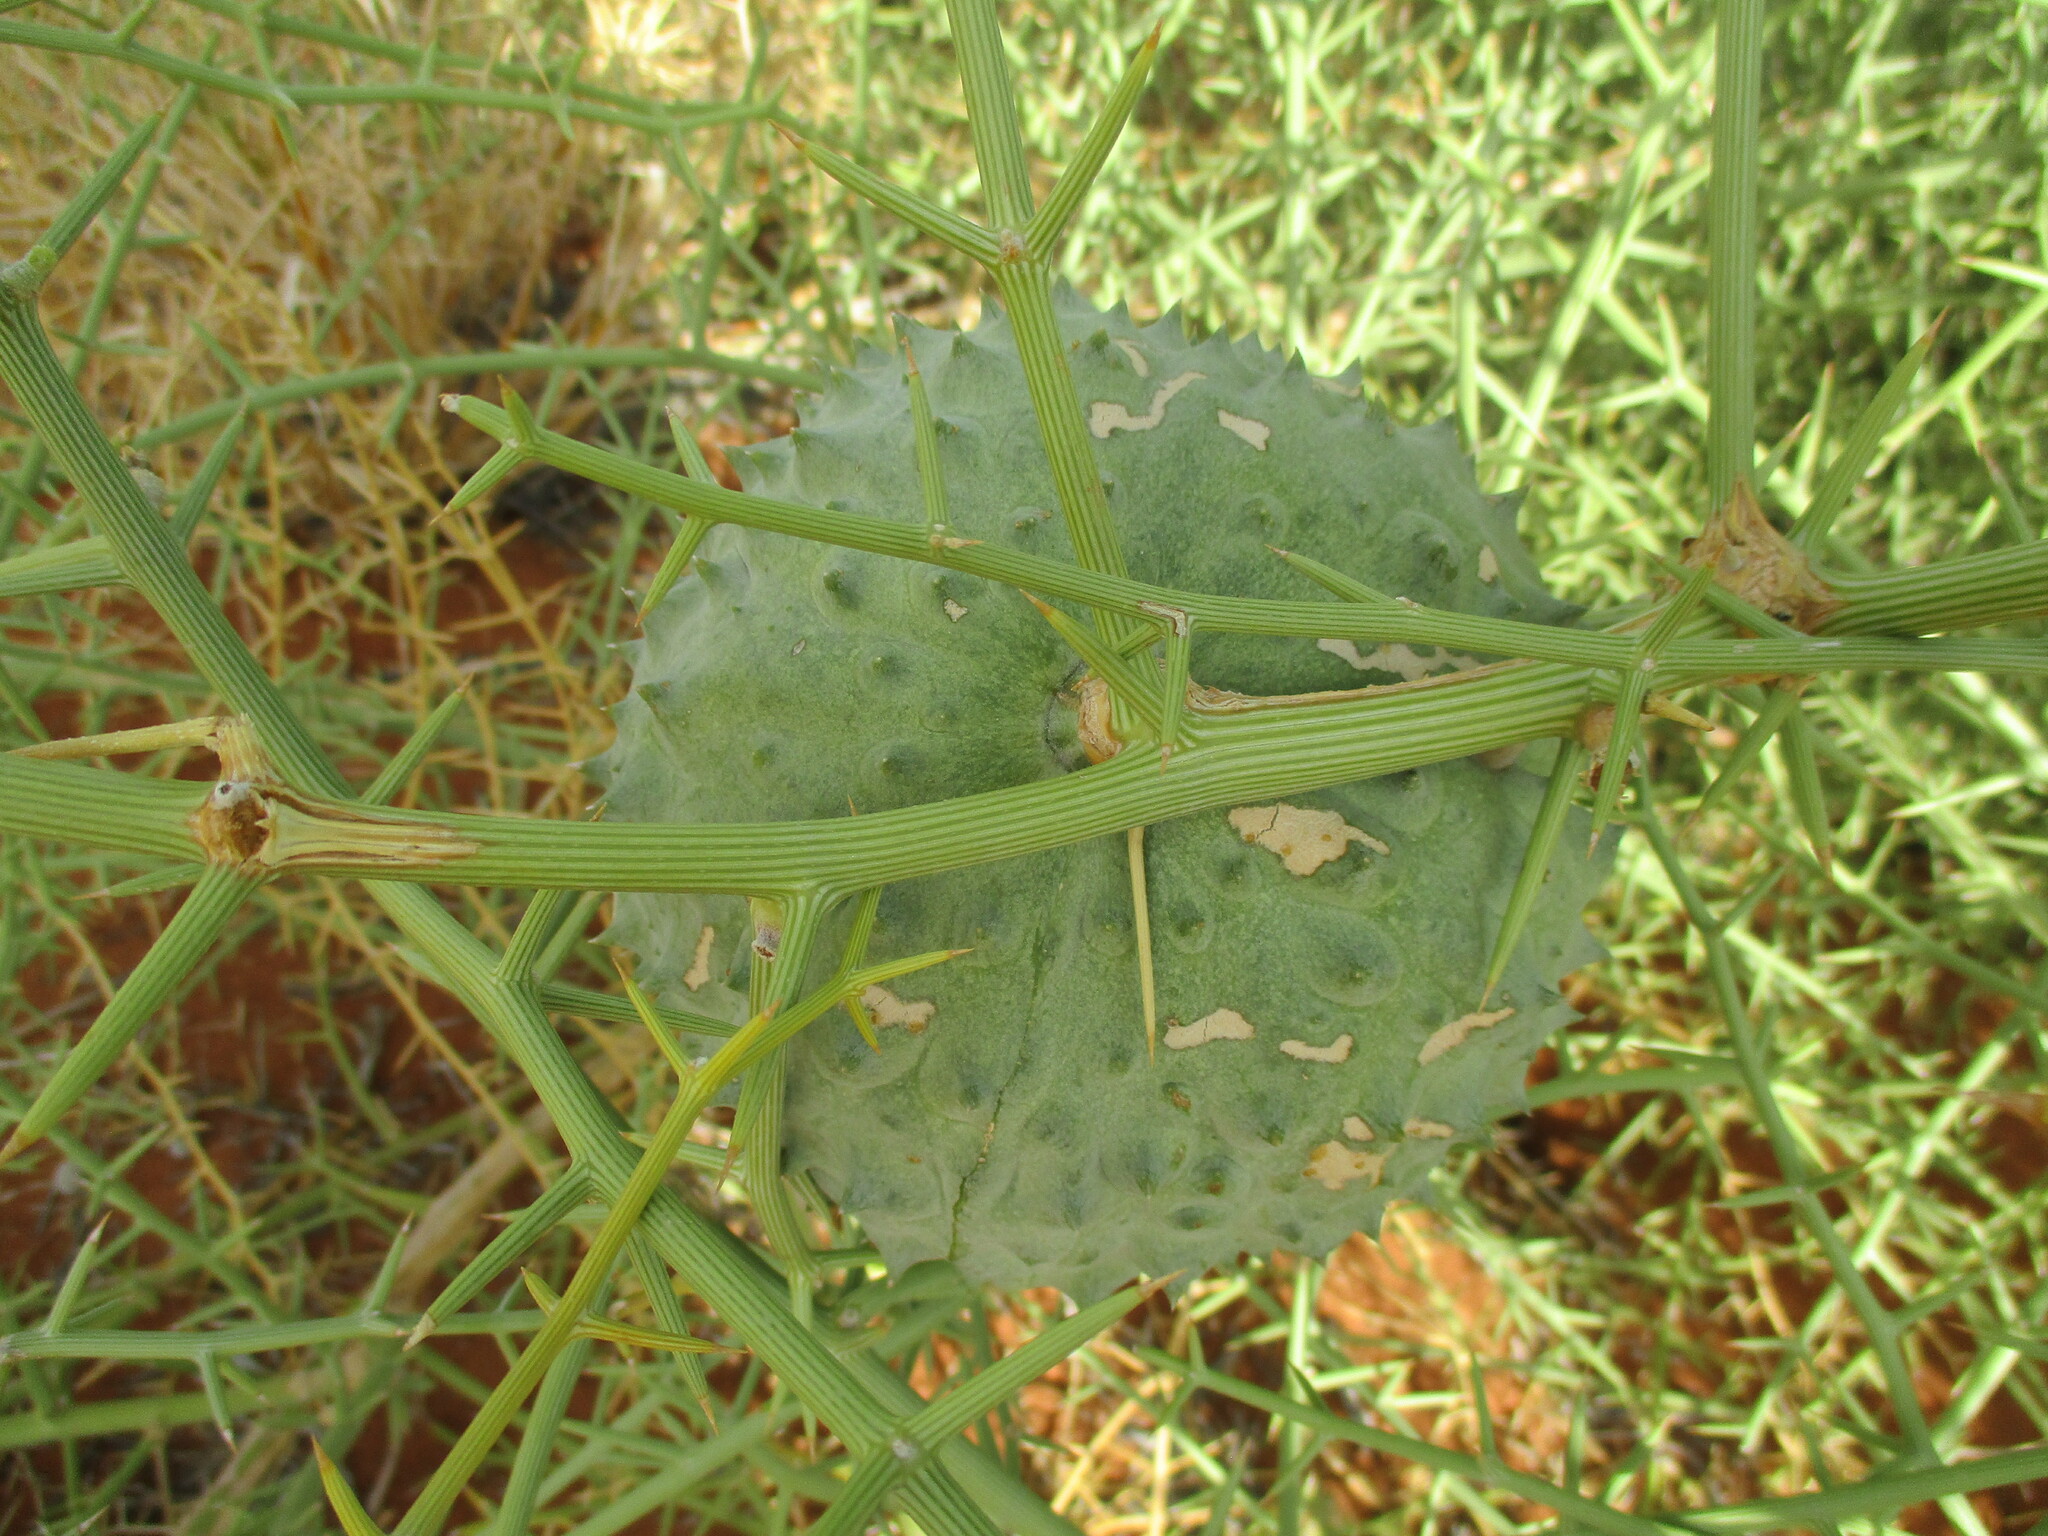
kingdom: Plantae
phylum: Tracheophyta
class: Magnoliopsida
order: Cucurbitales
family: Cucurbitaceae
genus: Acanthosicyos
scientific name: Acanthosicyos horridus
